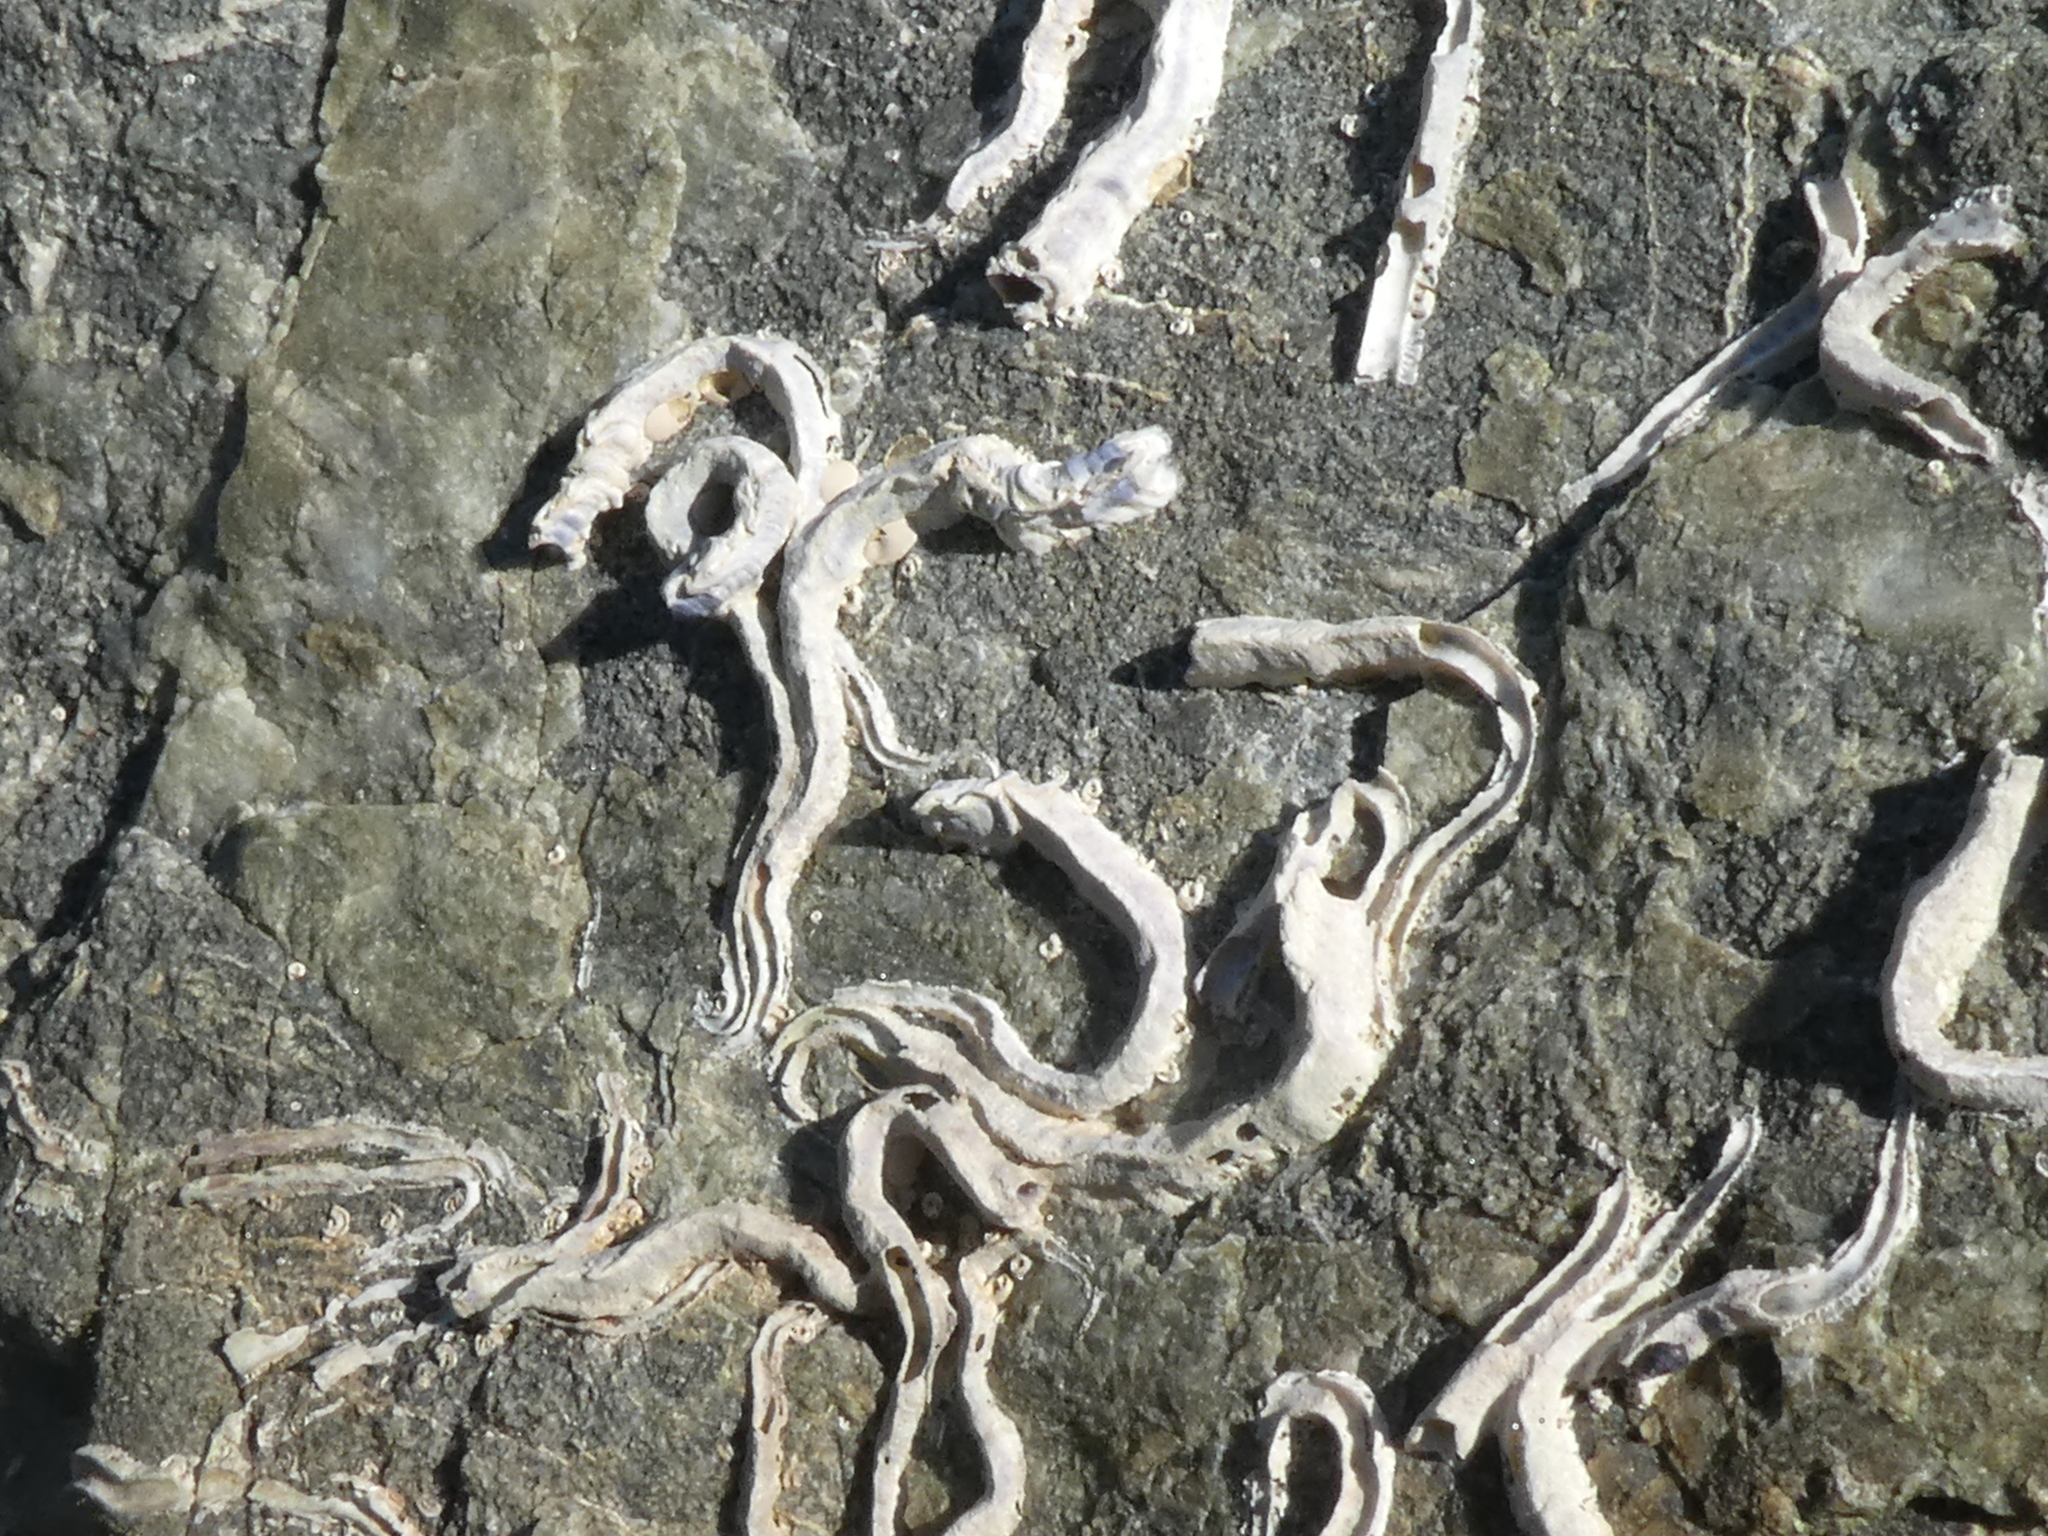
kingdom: Animalia
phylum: Annelida
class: Polychaeta
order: Sabellida
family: Serpulidae
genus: Spirobranchus
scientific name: Spirobranchus cariniferus
